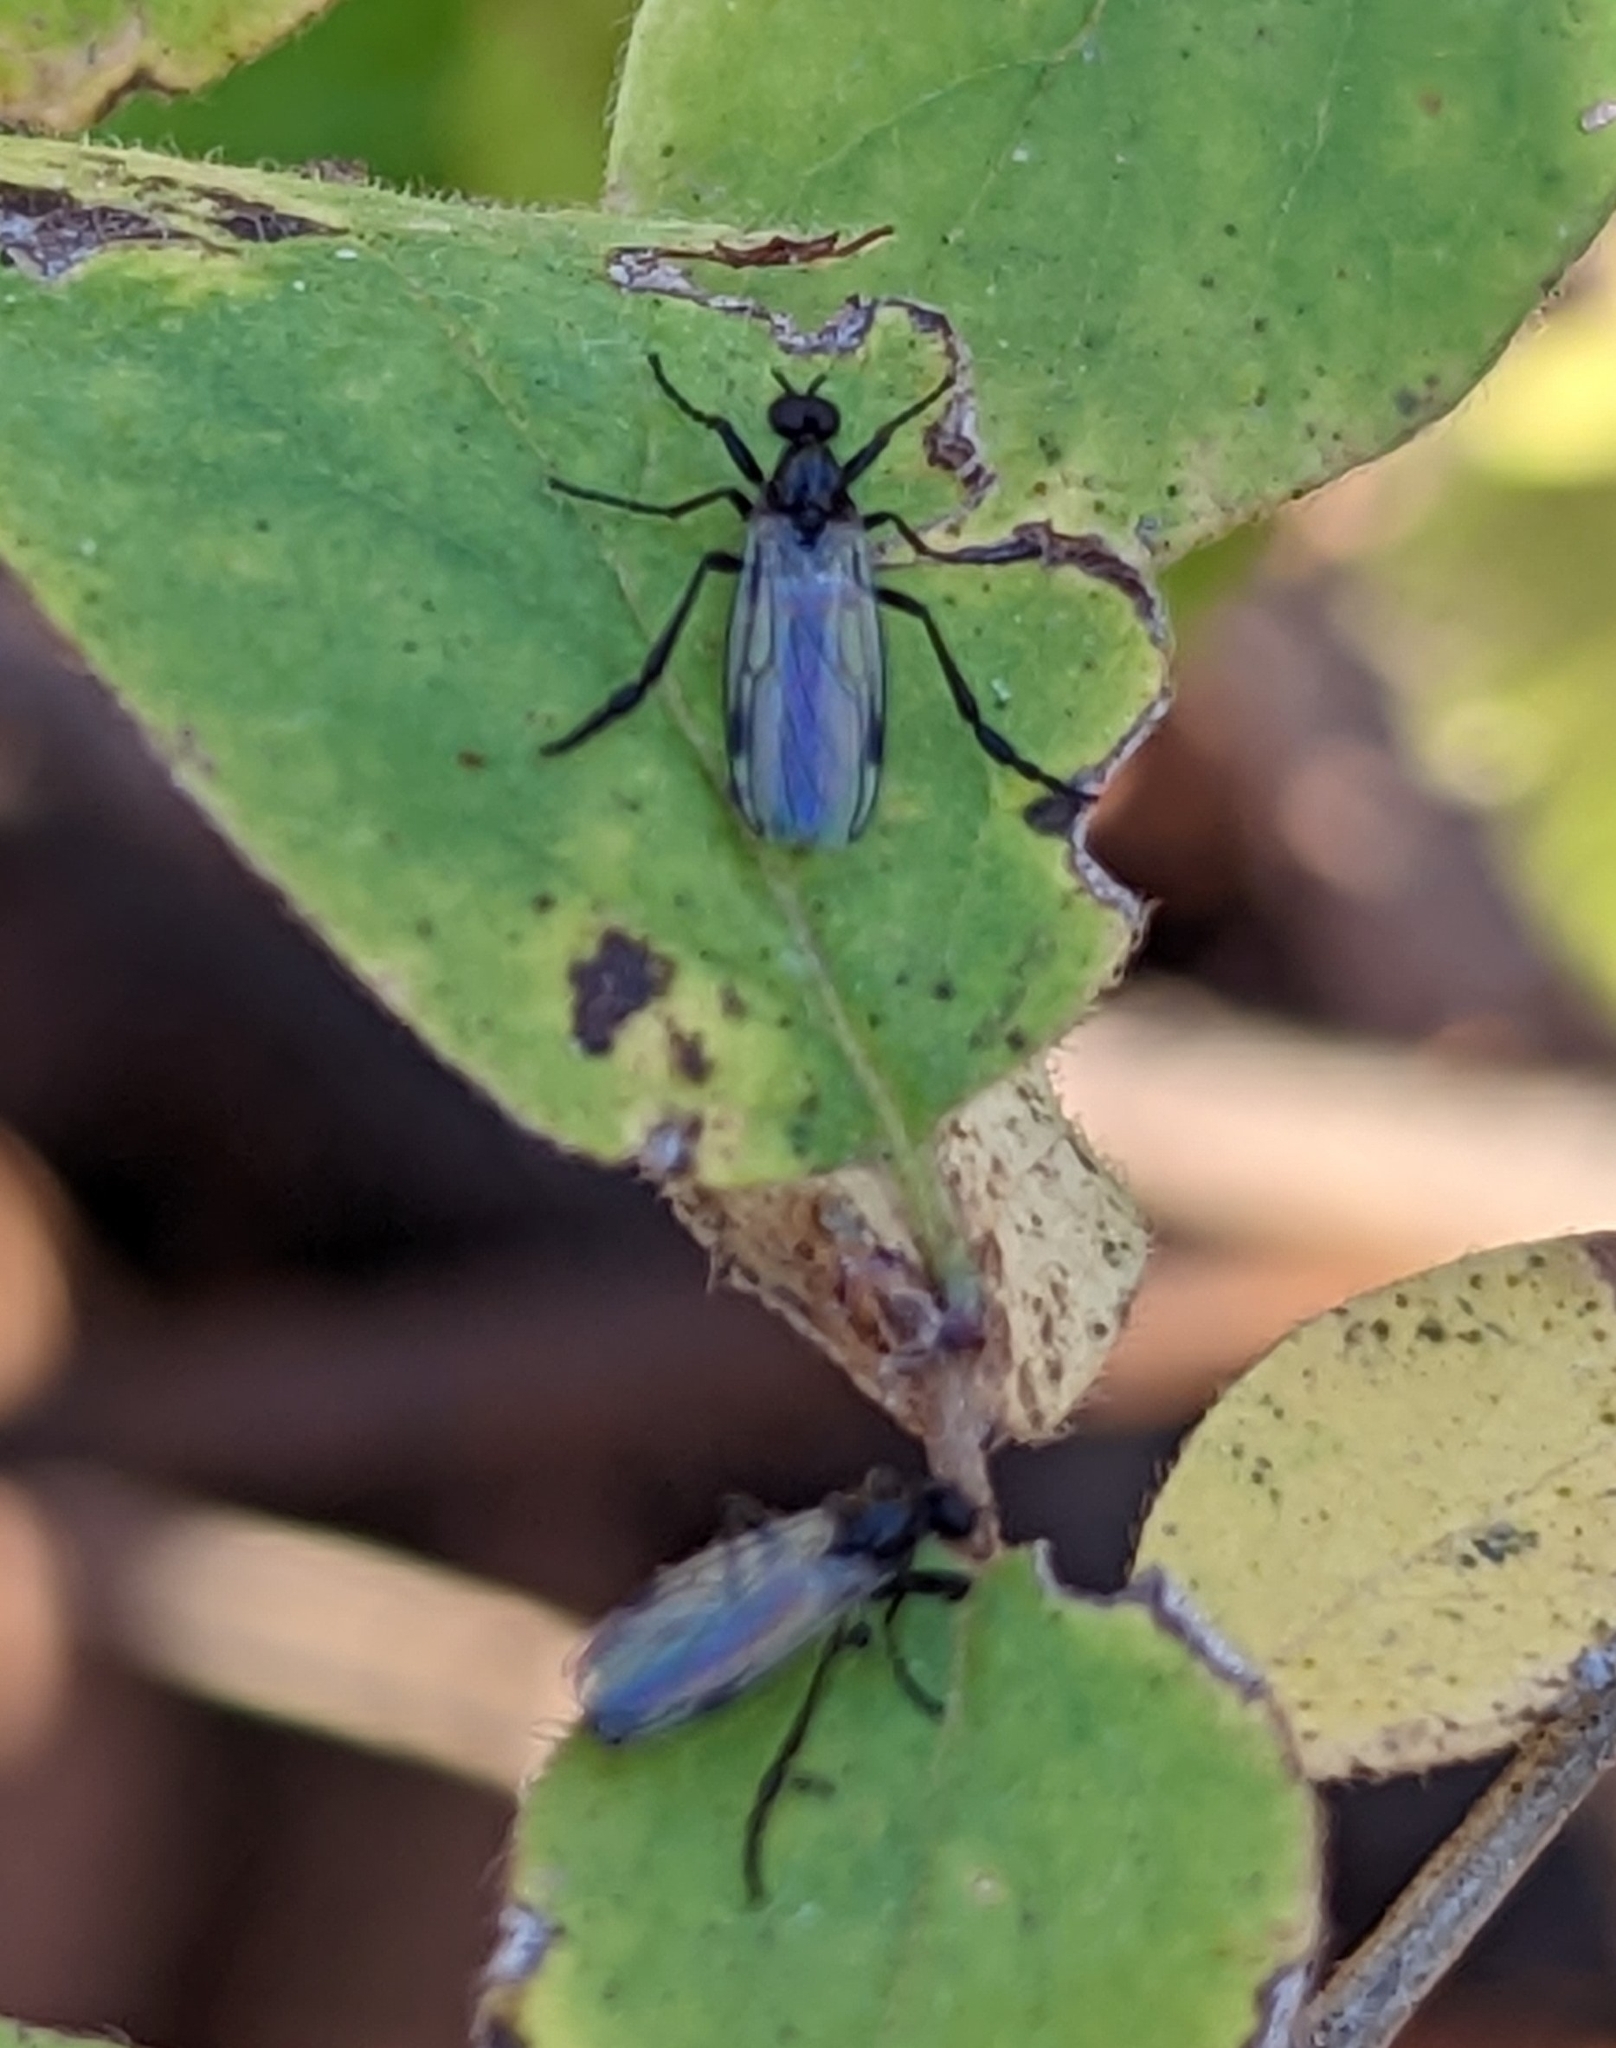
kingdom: Animalia
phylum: Arthropoda
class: Insecta
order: Diptera
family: Bibionidae
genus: Bibio
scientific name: Bibio
